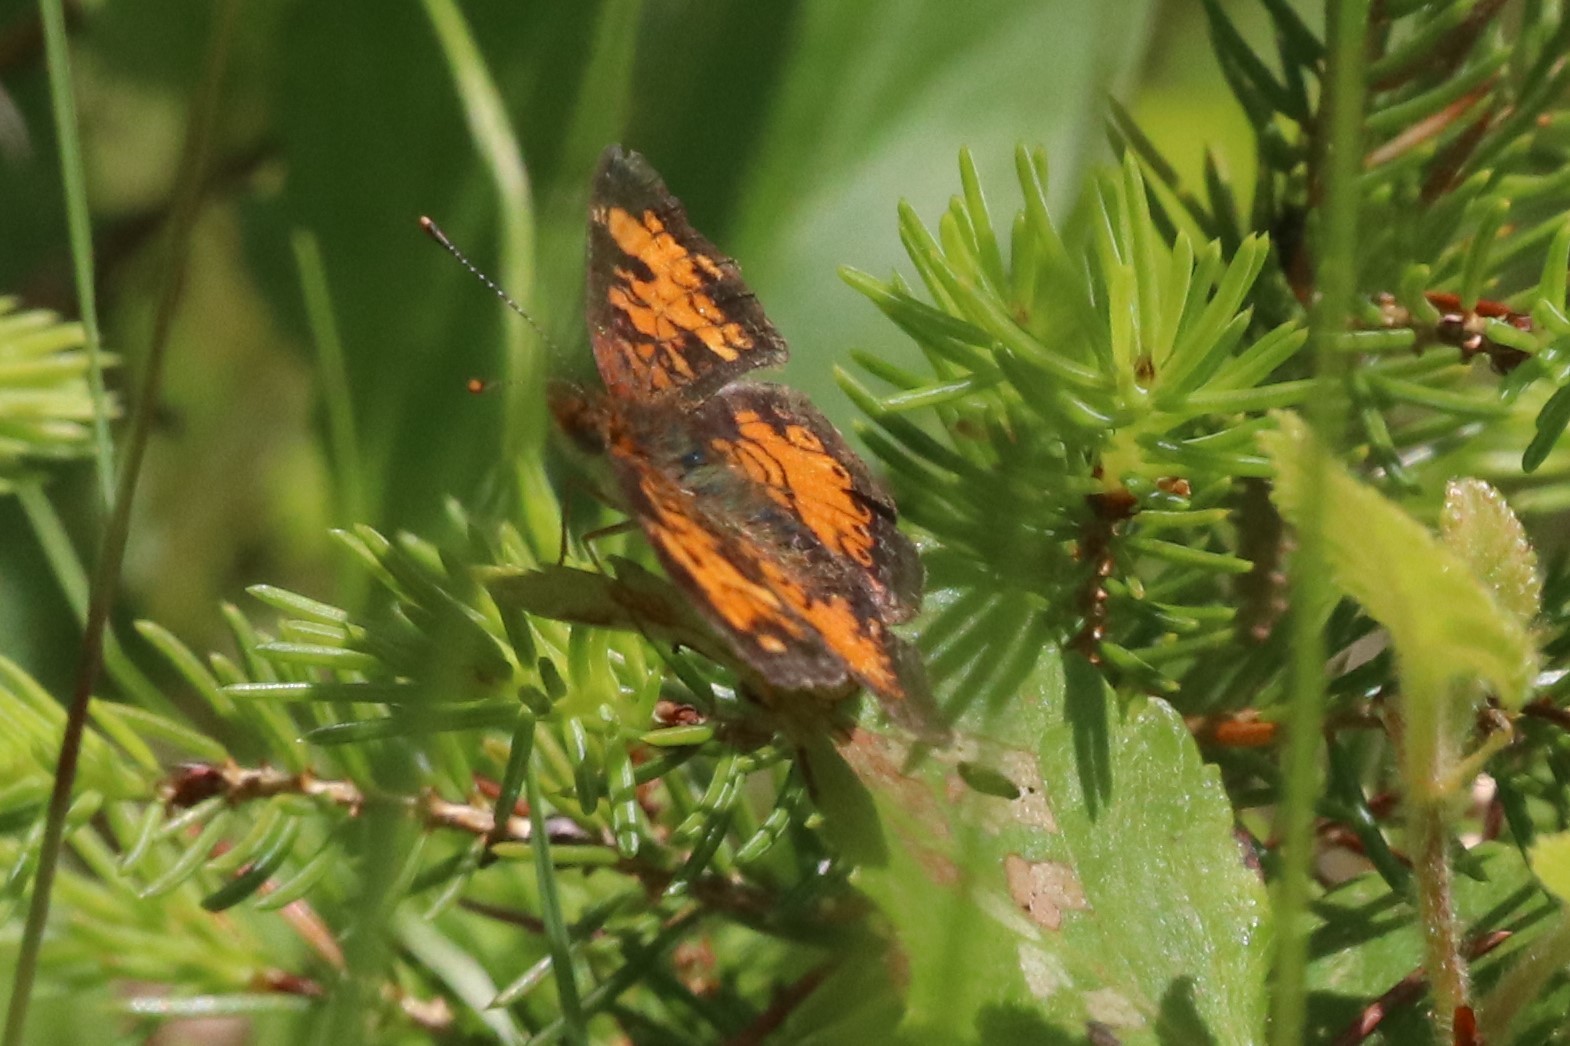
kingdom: Animalia
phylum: Arthropoda
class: Insecta
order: Lepidoptera
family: Nymphalidae
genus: Phyciodes
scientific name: Phyciodes tharos
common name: Pearl crescent
